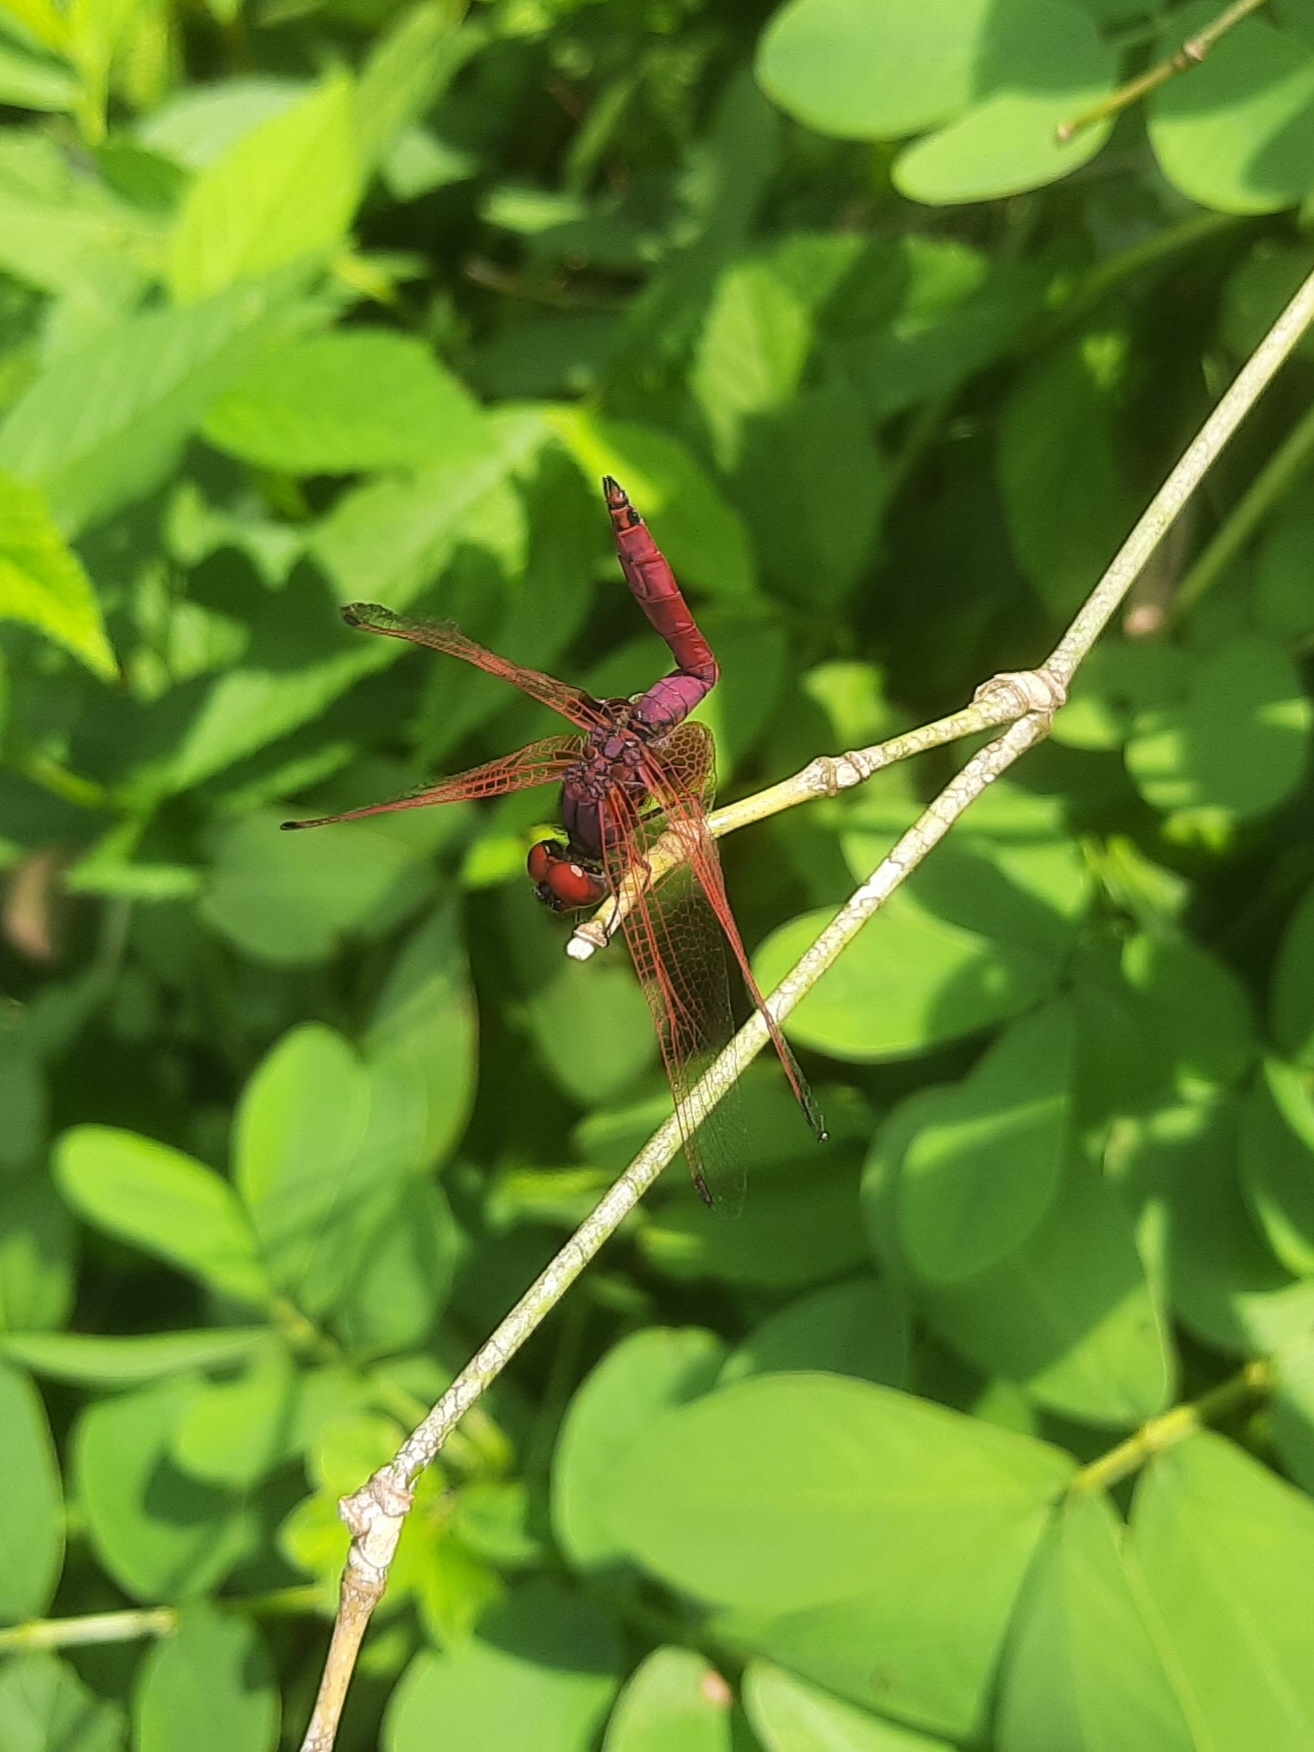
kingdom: Animalia
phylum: Arthropoda
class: Insecta
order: Odonata
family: Libellulidae
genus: Trithemis
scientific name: Trithemis aurora
